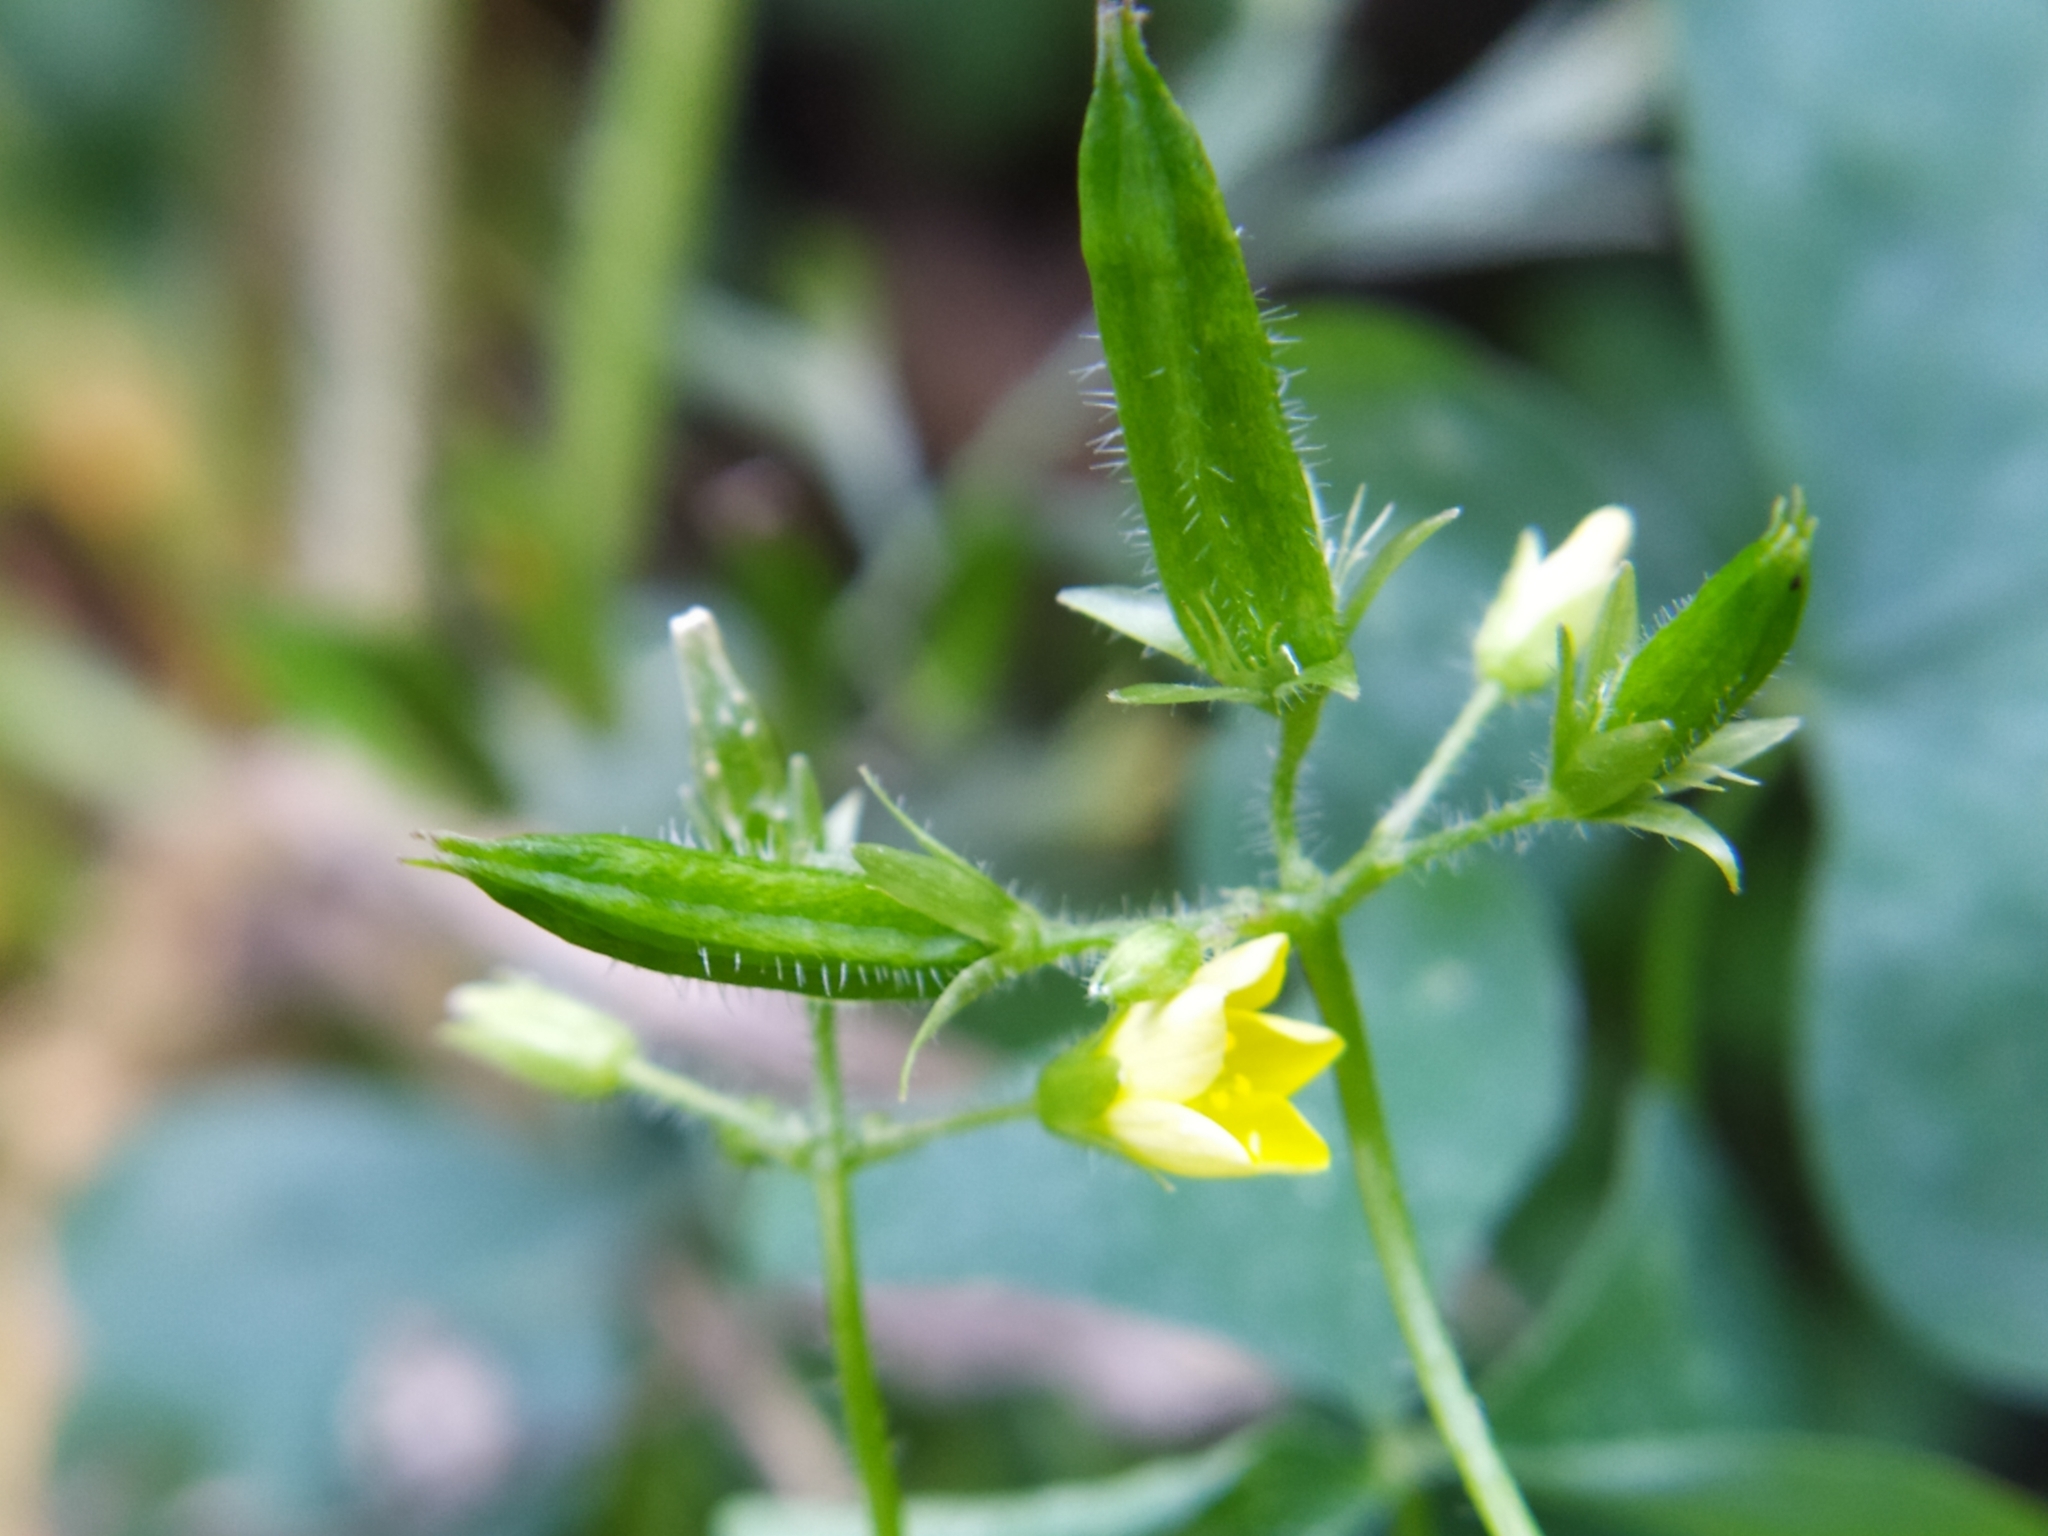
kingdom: Plantae
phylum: Tracheophyta
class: Magnoliopsida
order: Oxalidales
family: Oxalidaceae
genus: Oxalis
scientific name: Oxalis stricta
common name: Upright yellow-sorrel
